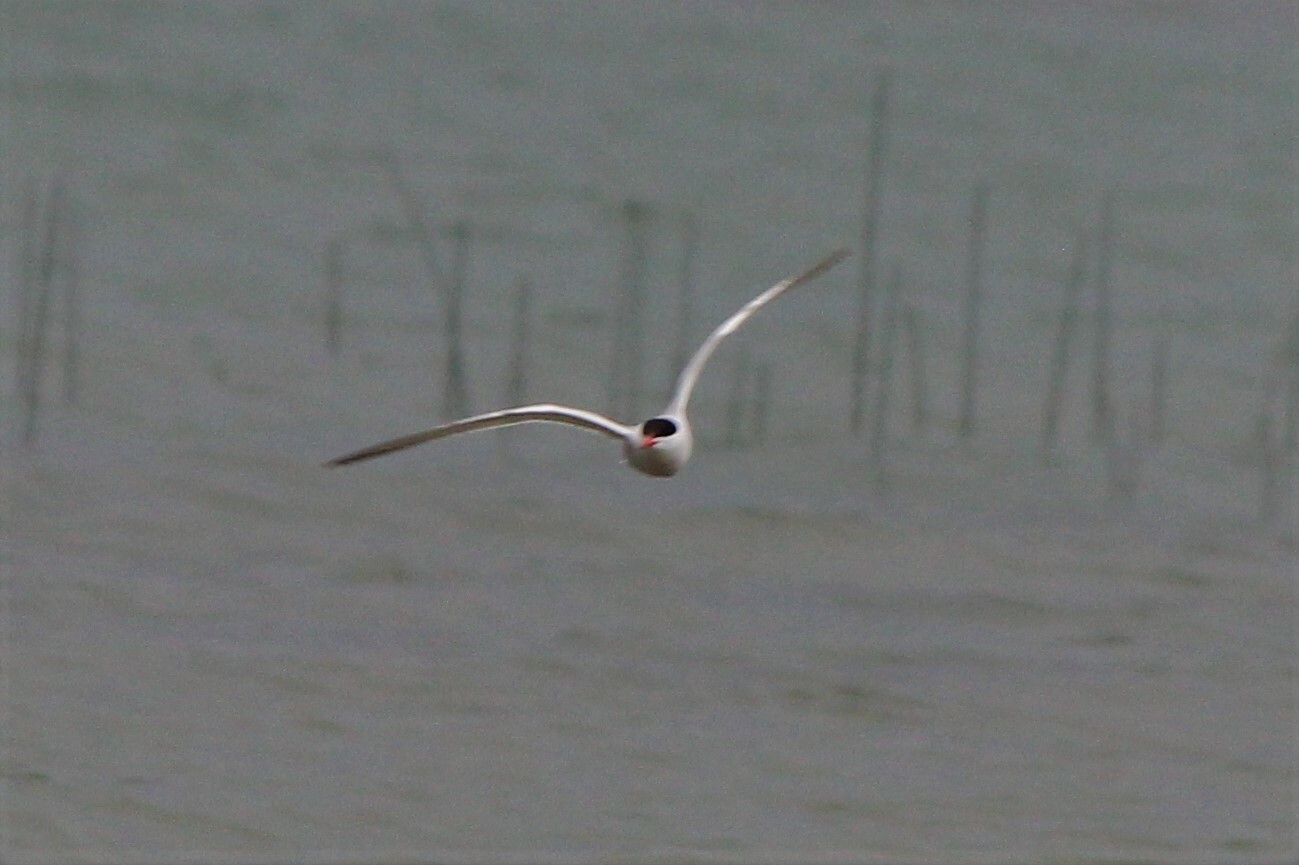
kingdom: Animalia
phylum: Chordata
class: Aves
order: Charadriiformes
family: Laridae
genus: Sterna
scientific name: Sterna hirundo
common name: Common tern
